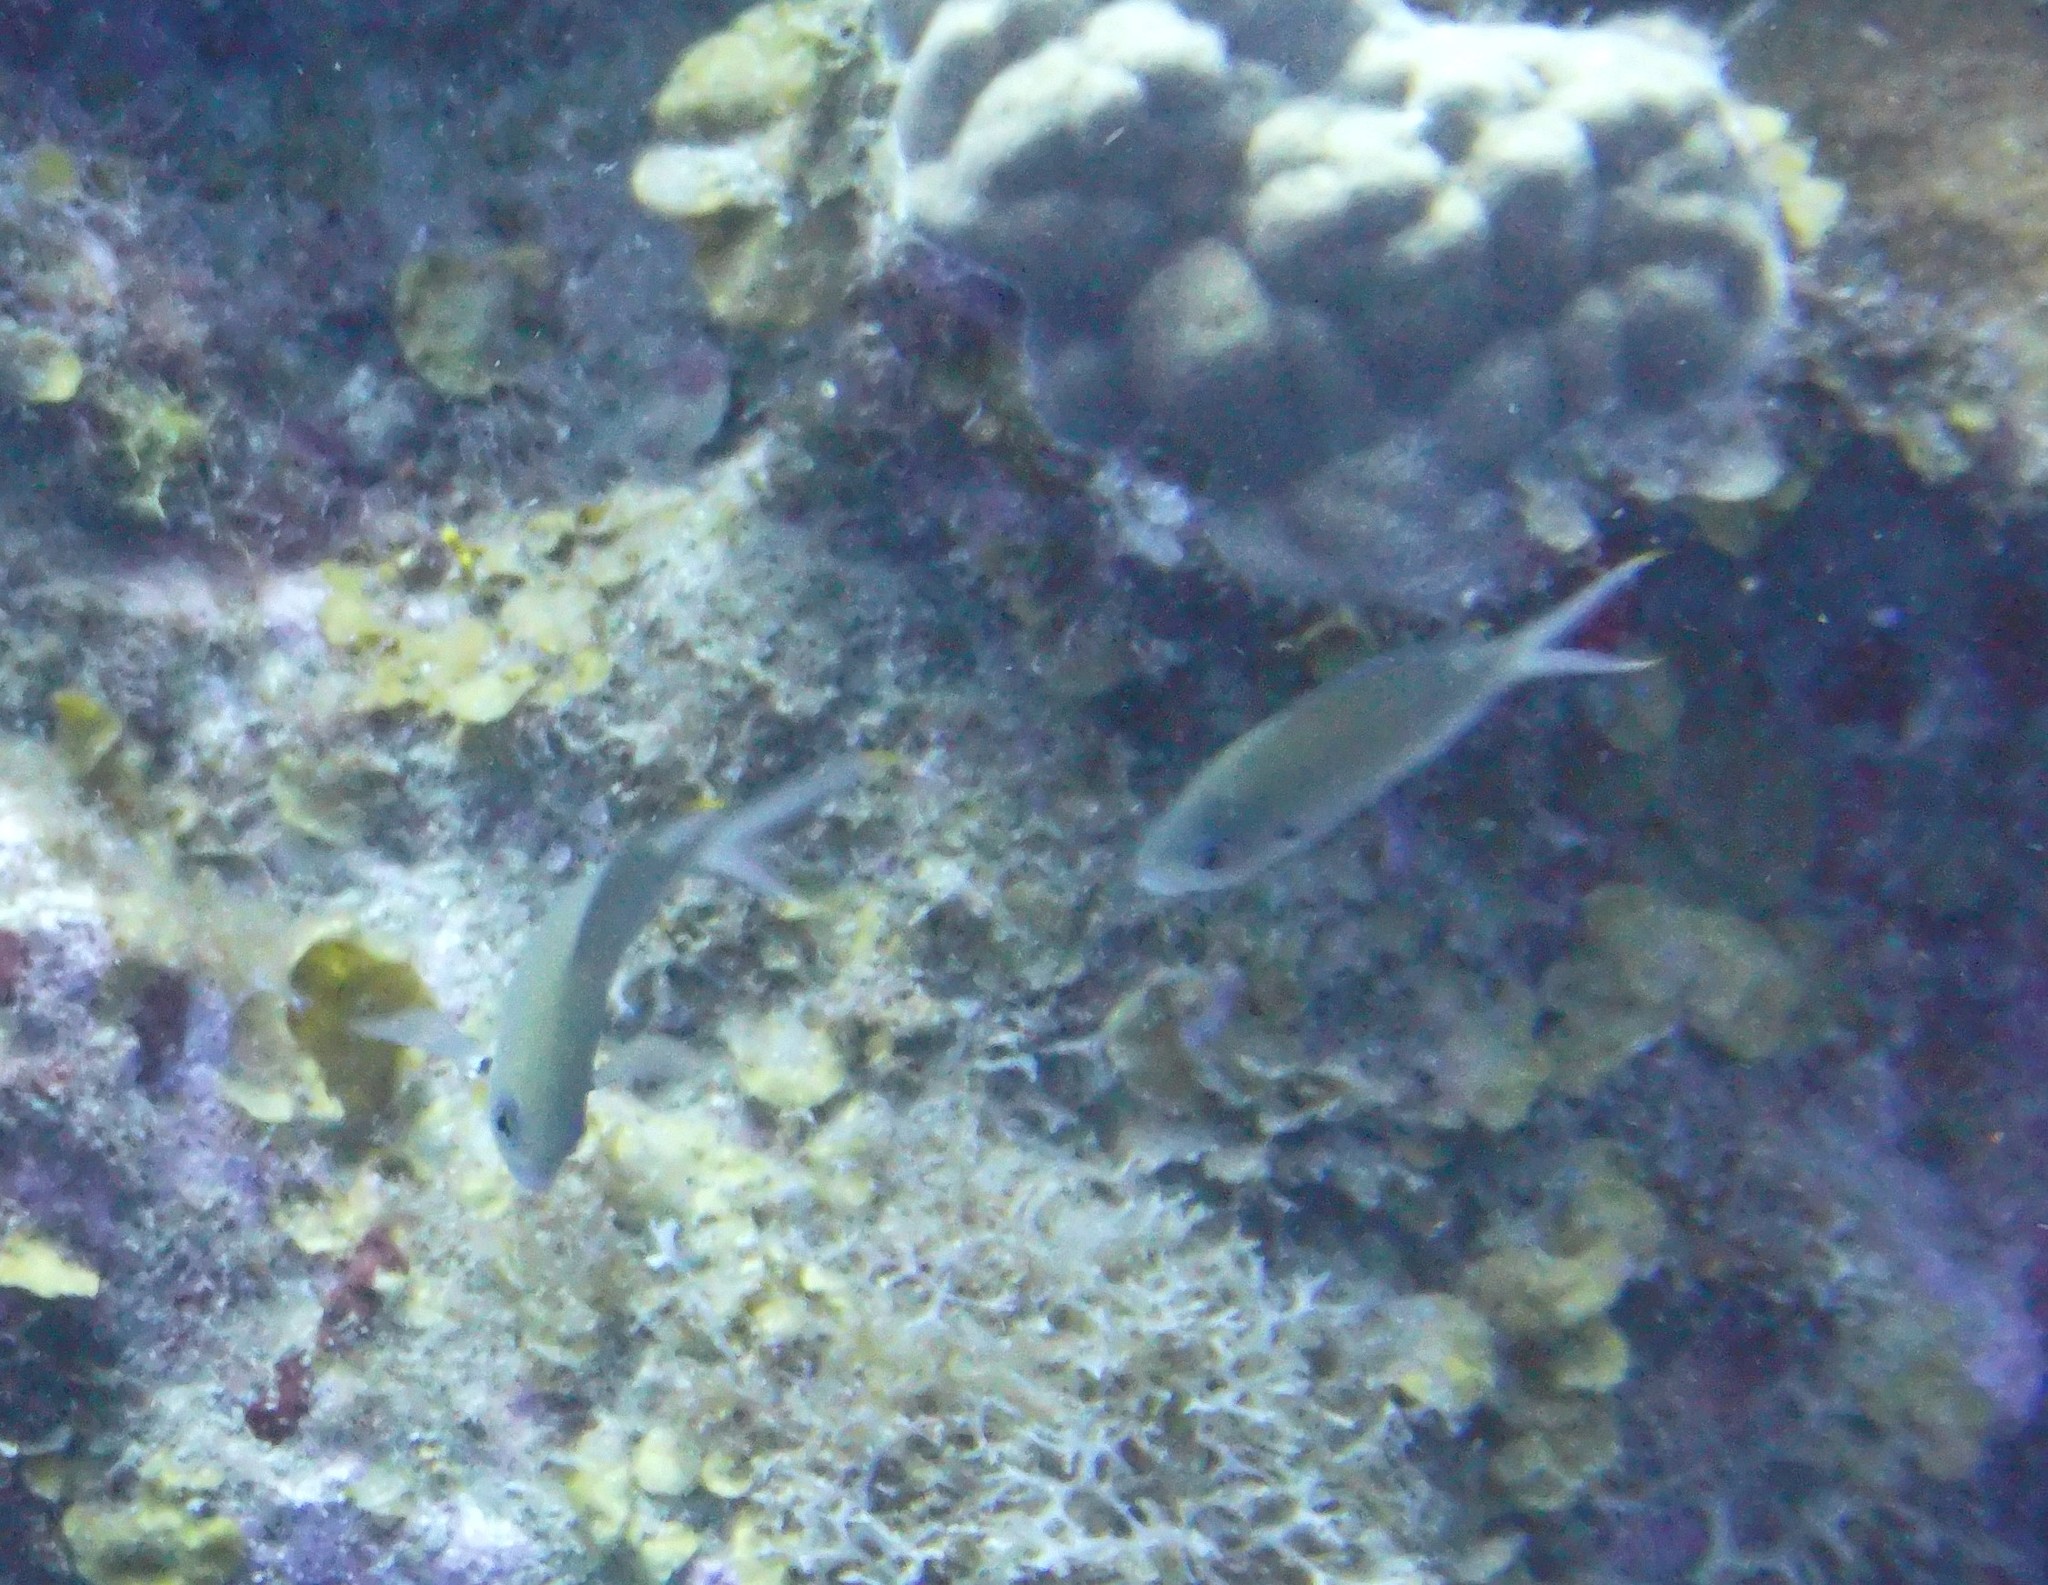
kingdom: Animalia
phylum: Chordata
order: Perciformes
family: Pomacentridae
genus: Chromis
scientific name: Chromis multilineata
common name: Brown chromis
